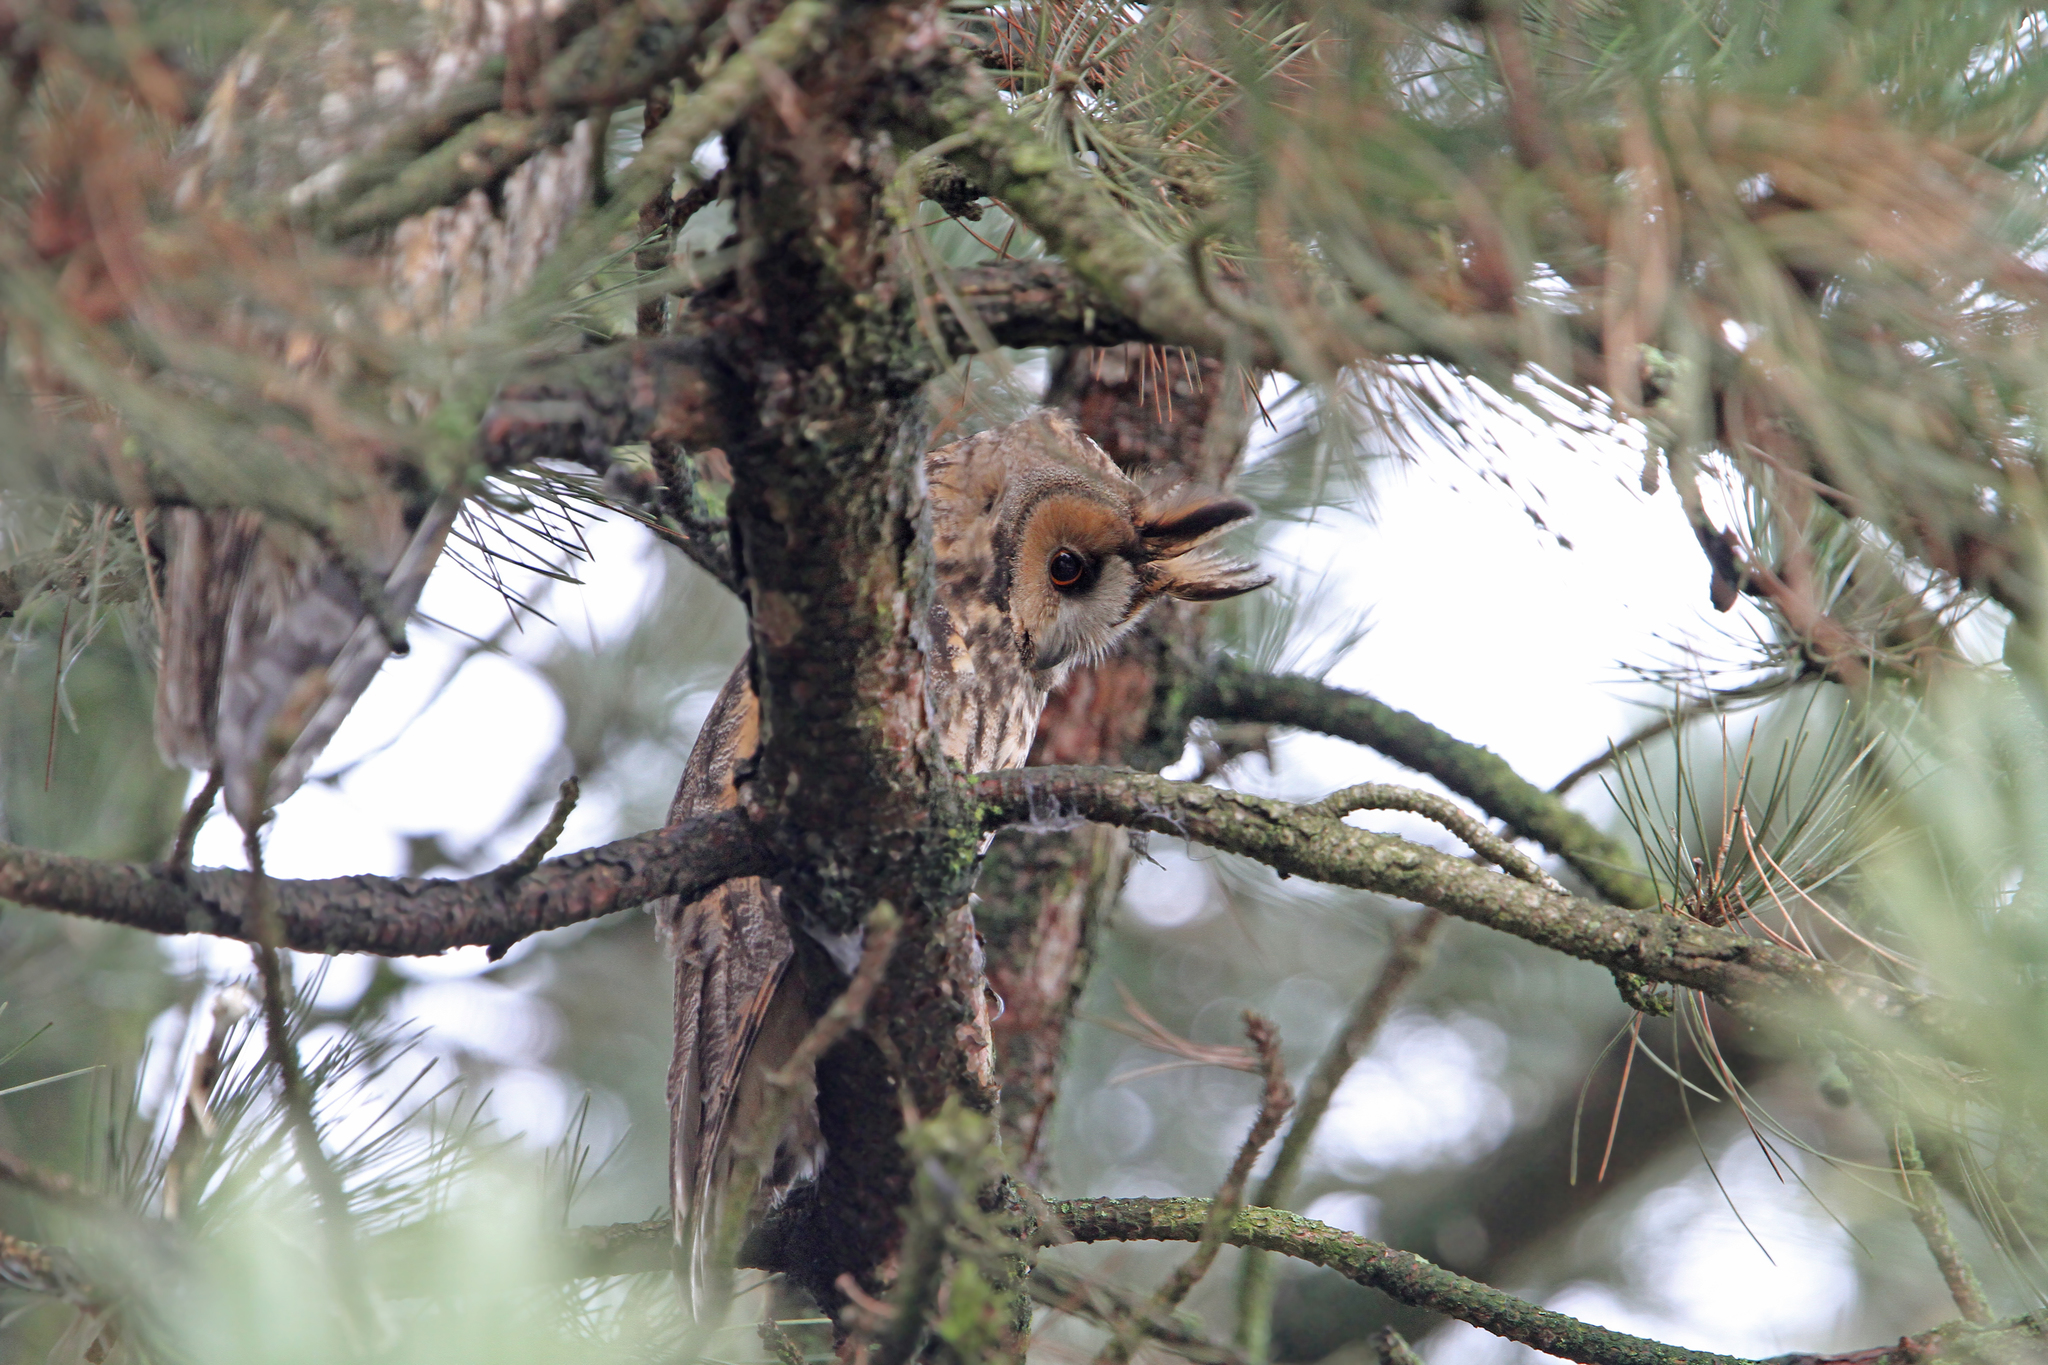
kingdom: Animalia
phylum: Chordata
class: Aves
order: Strigiformes
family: Strigidae
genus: Asio
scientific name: Asio otus
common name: Long-eared owl
